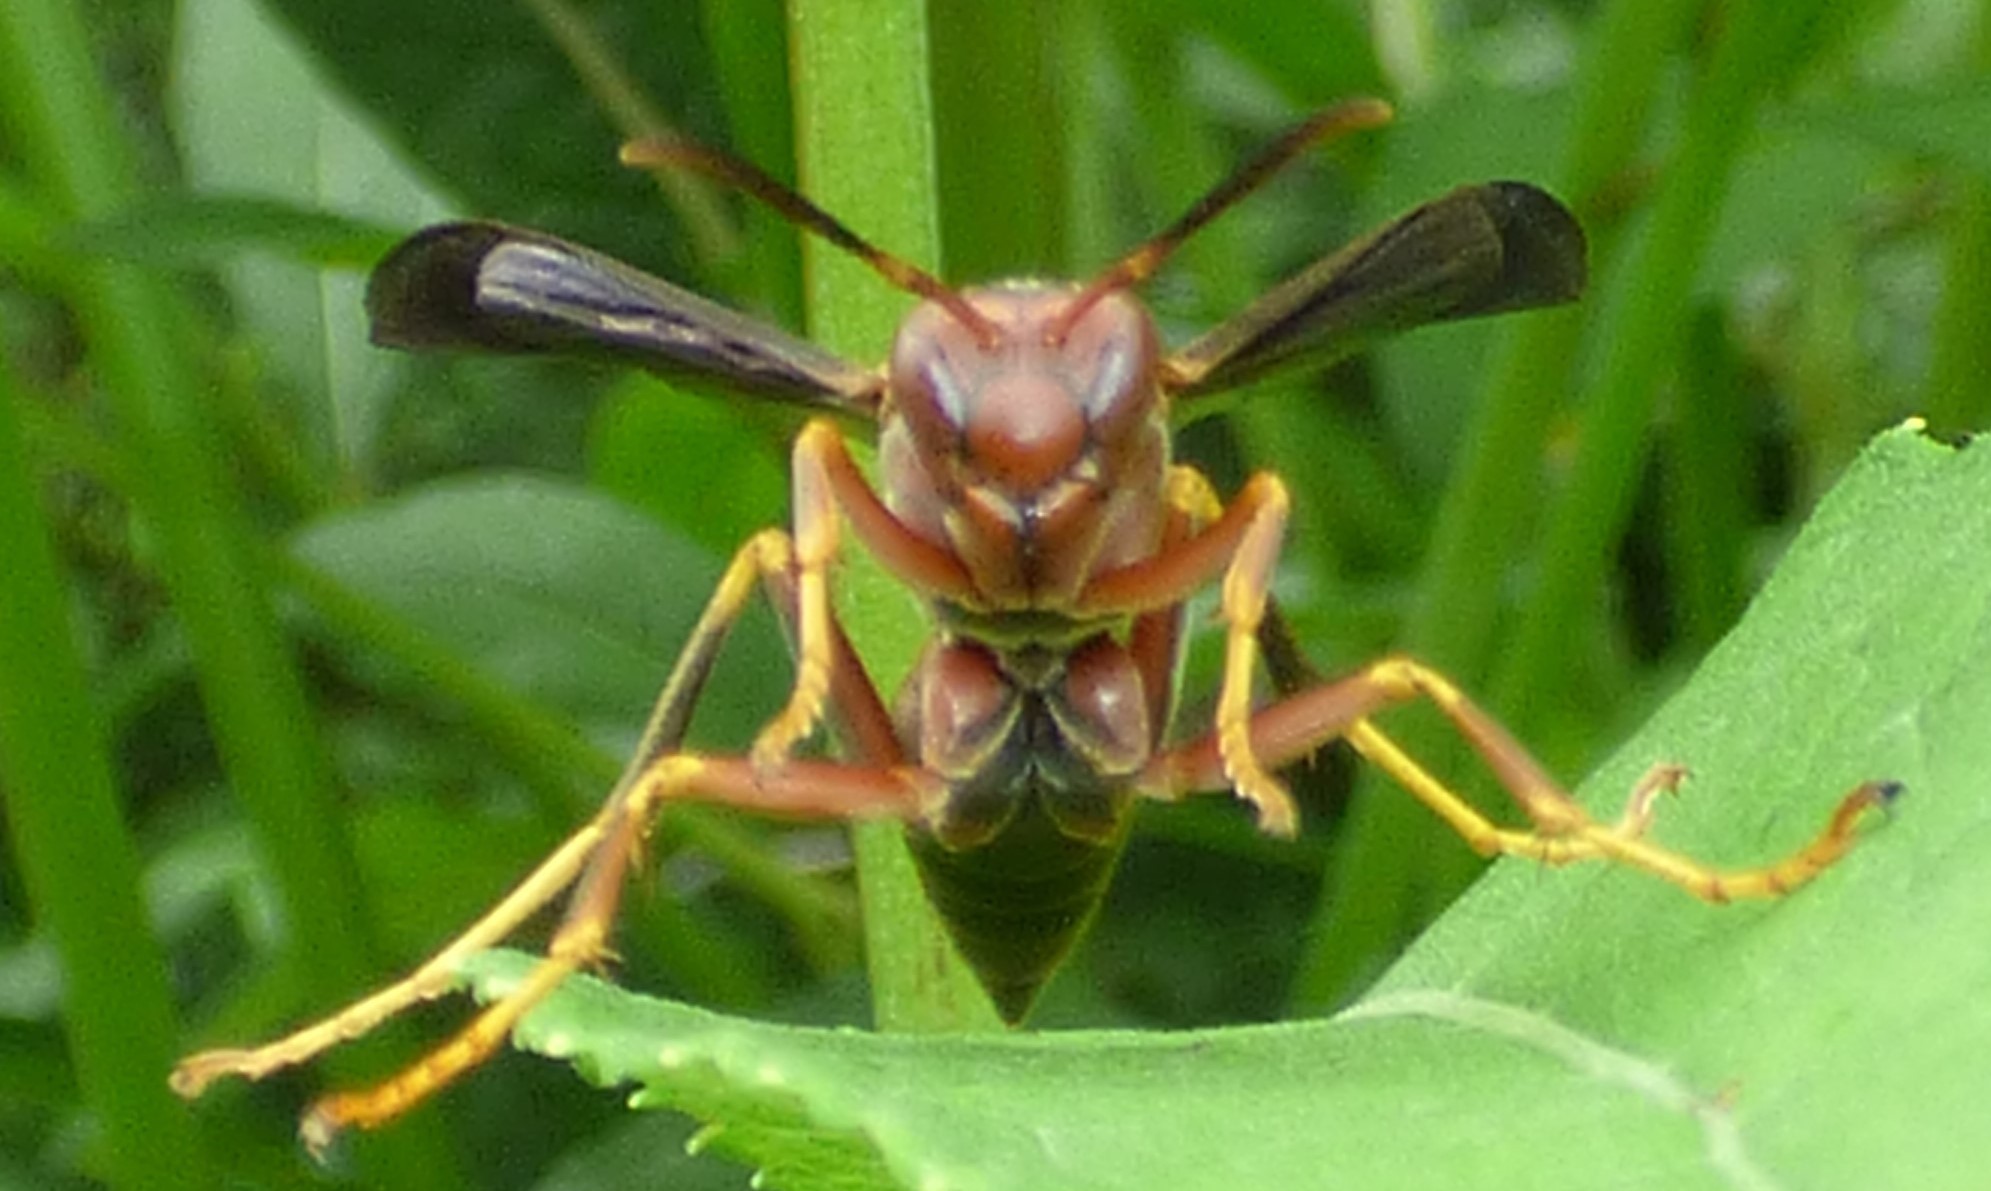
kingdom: Animalia
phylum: Arthropoda
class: Insecta
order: Hymenoptera
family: Eumenidae
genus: Polistes
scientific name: Polistes metricus
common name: Metric paper wasp
